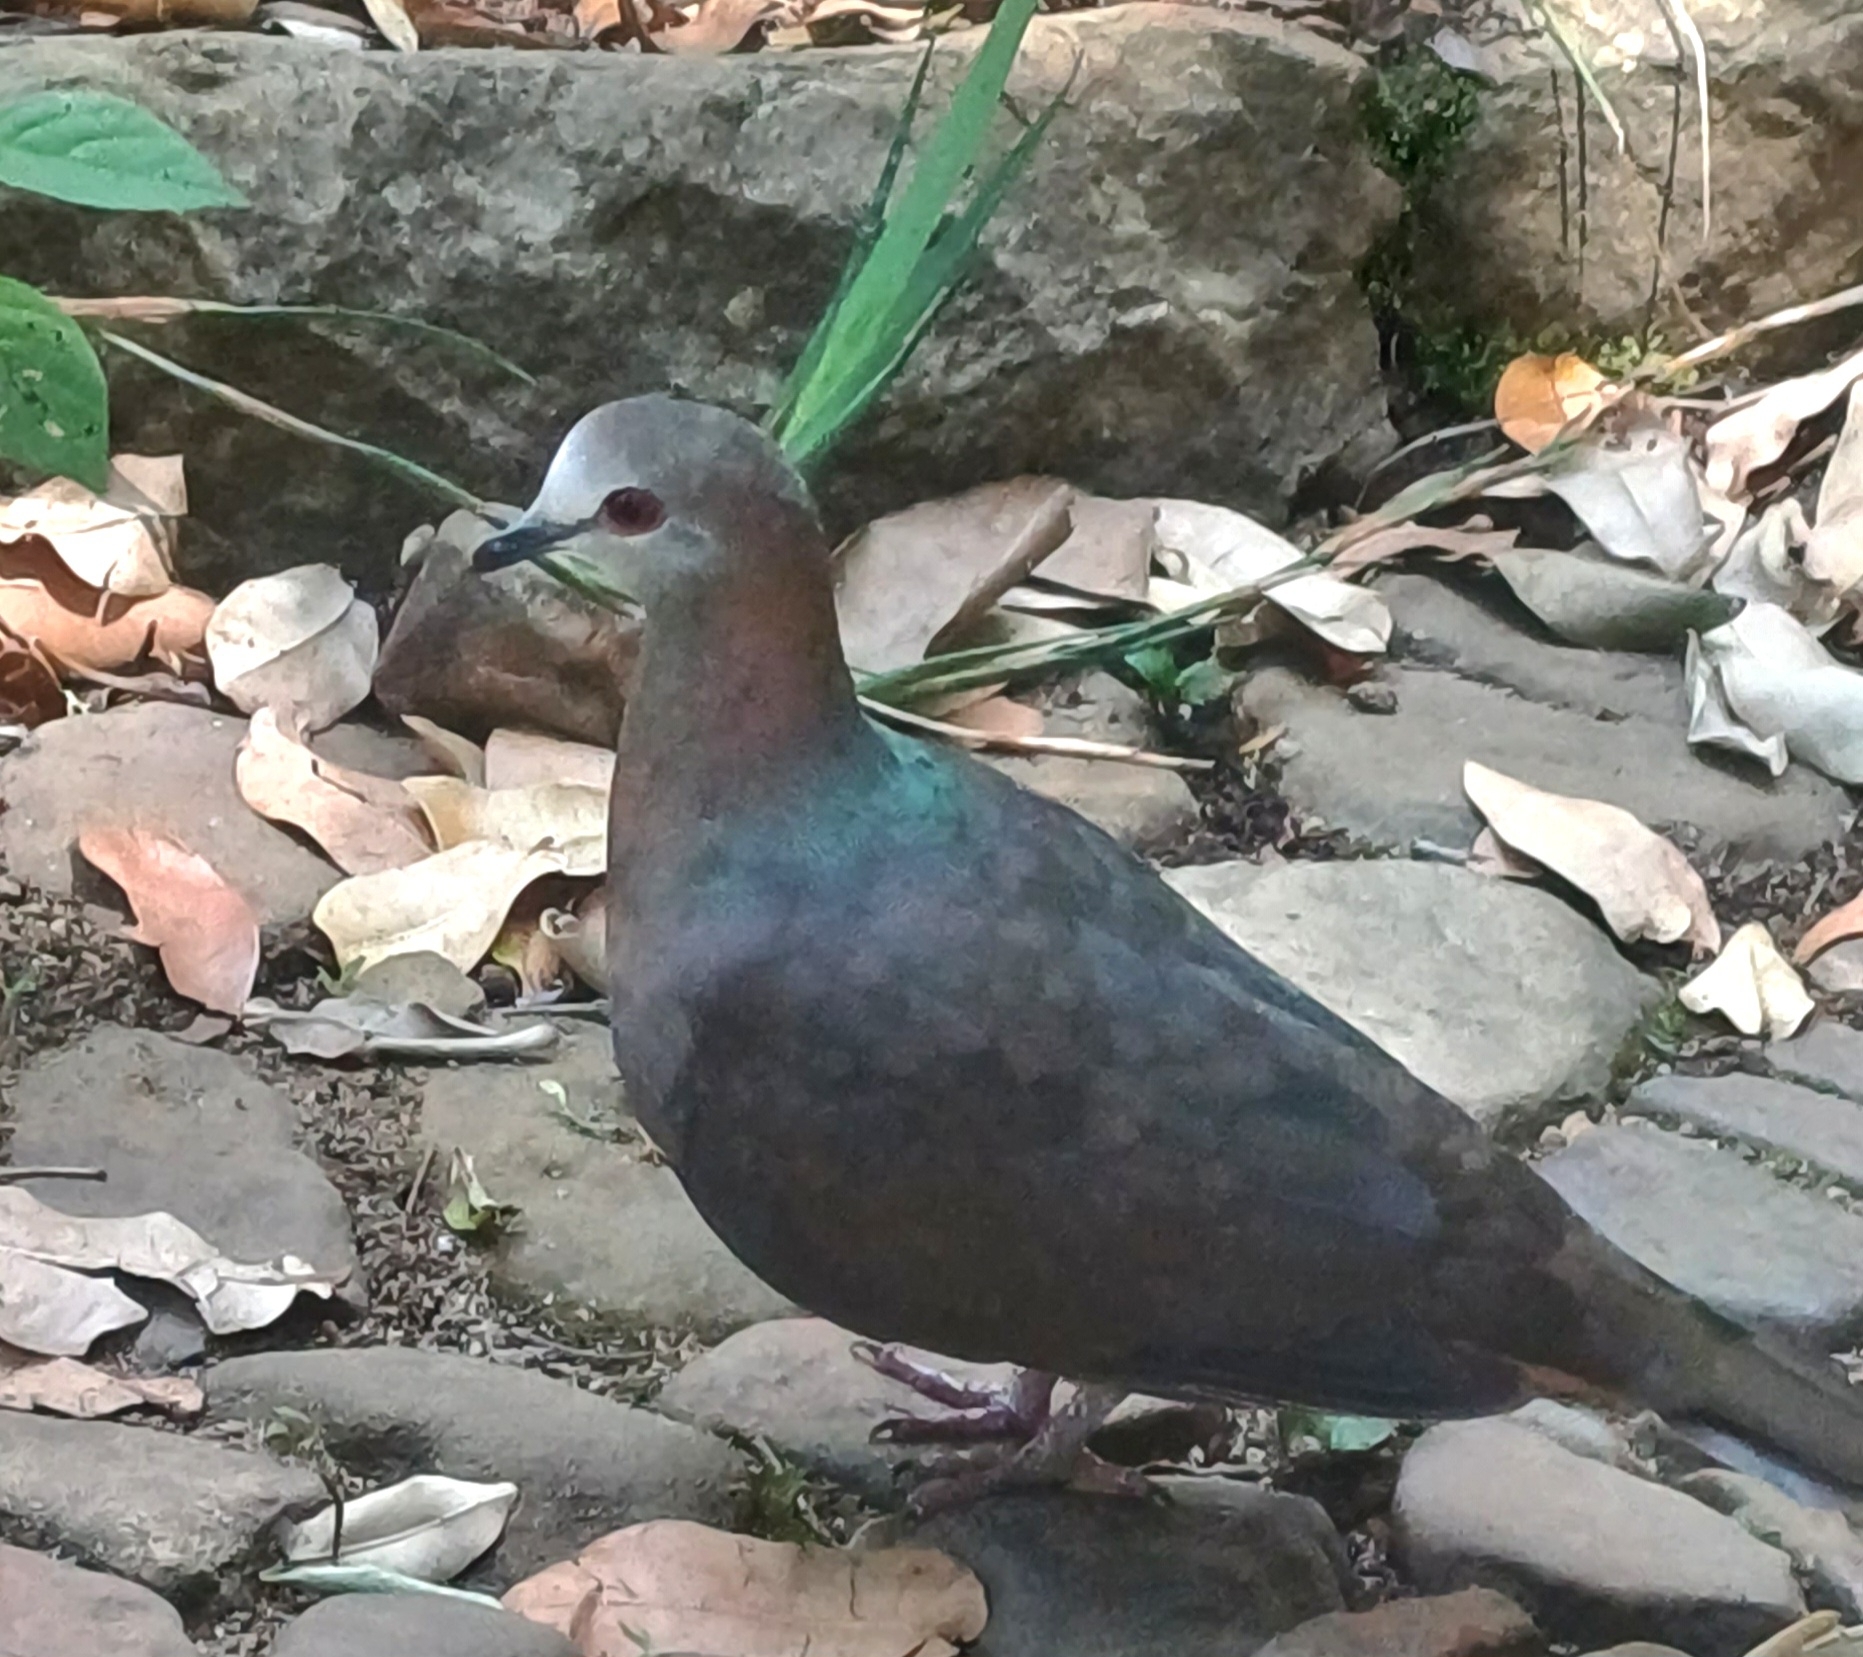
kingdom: Animalia
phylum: Chordata
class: Aves
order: Columbiformes
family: Columbidae
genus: Columba
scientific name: Columba larvata
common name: Lemon dove
